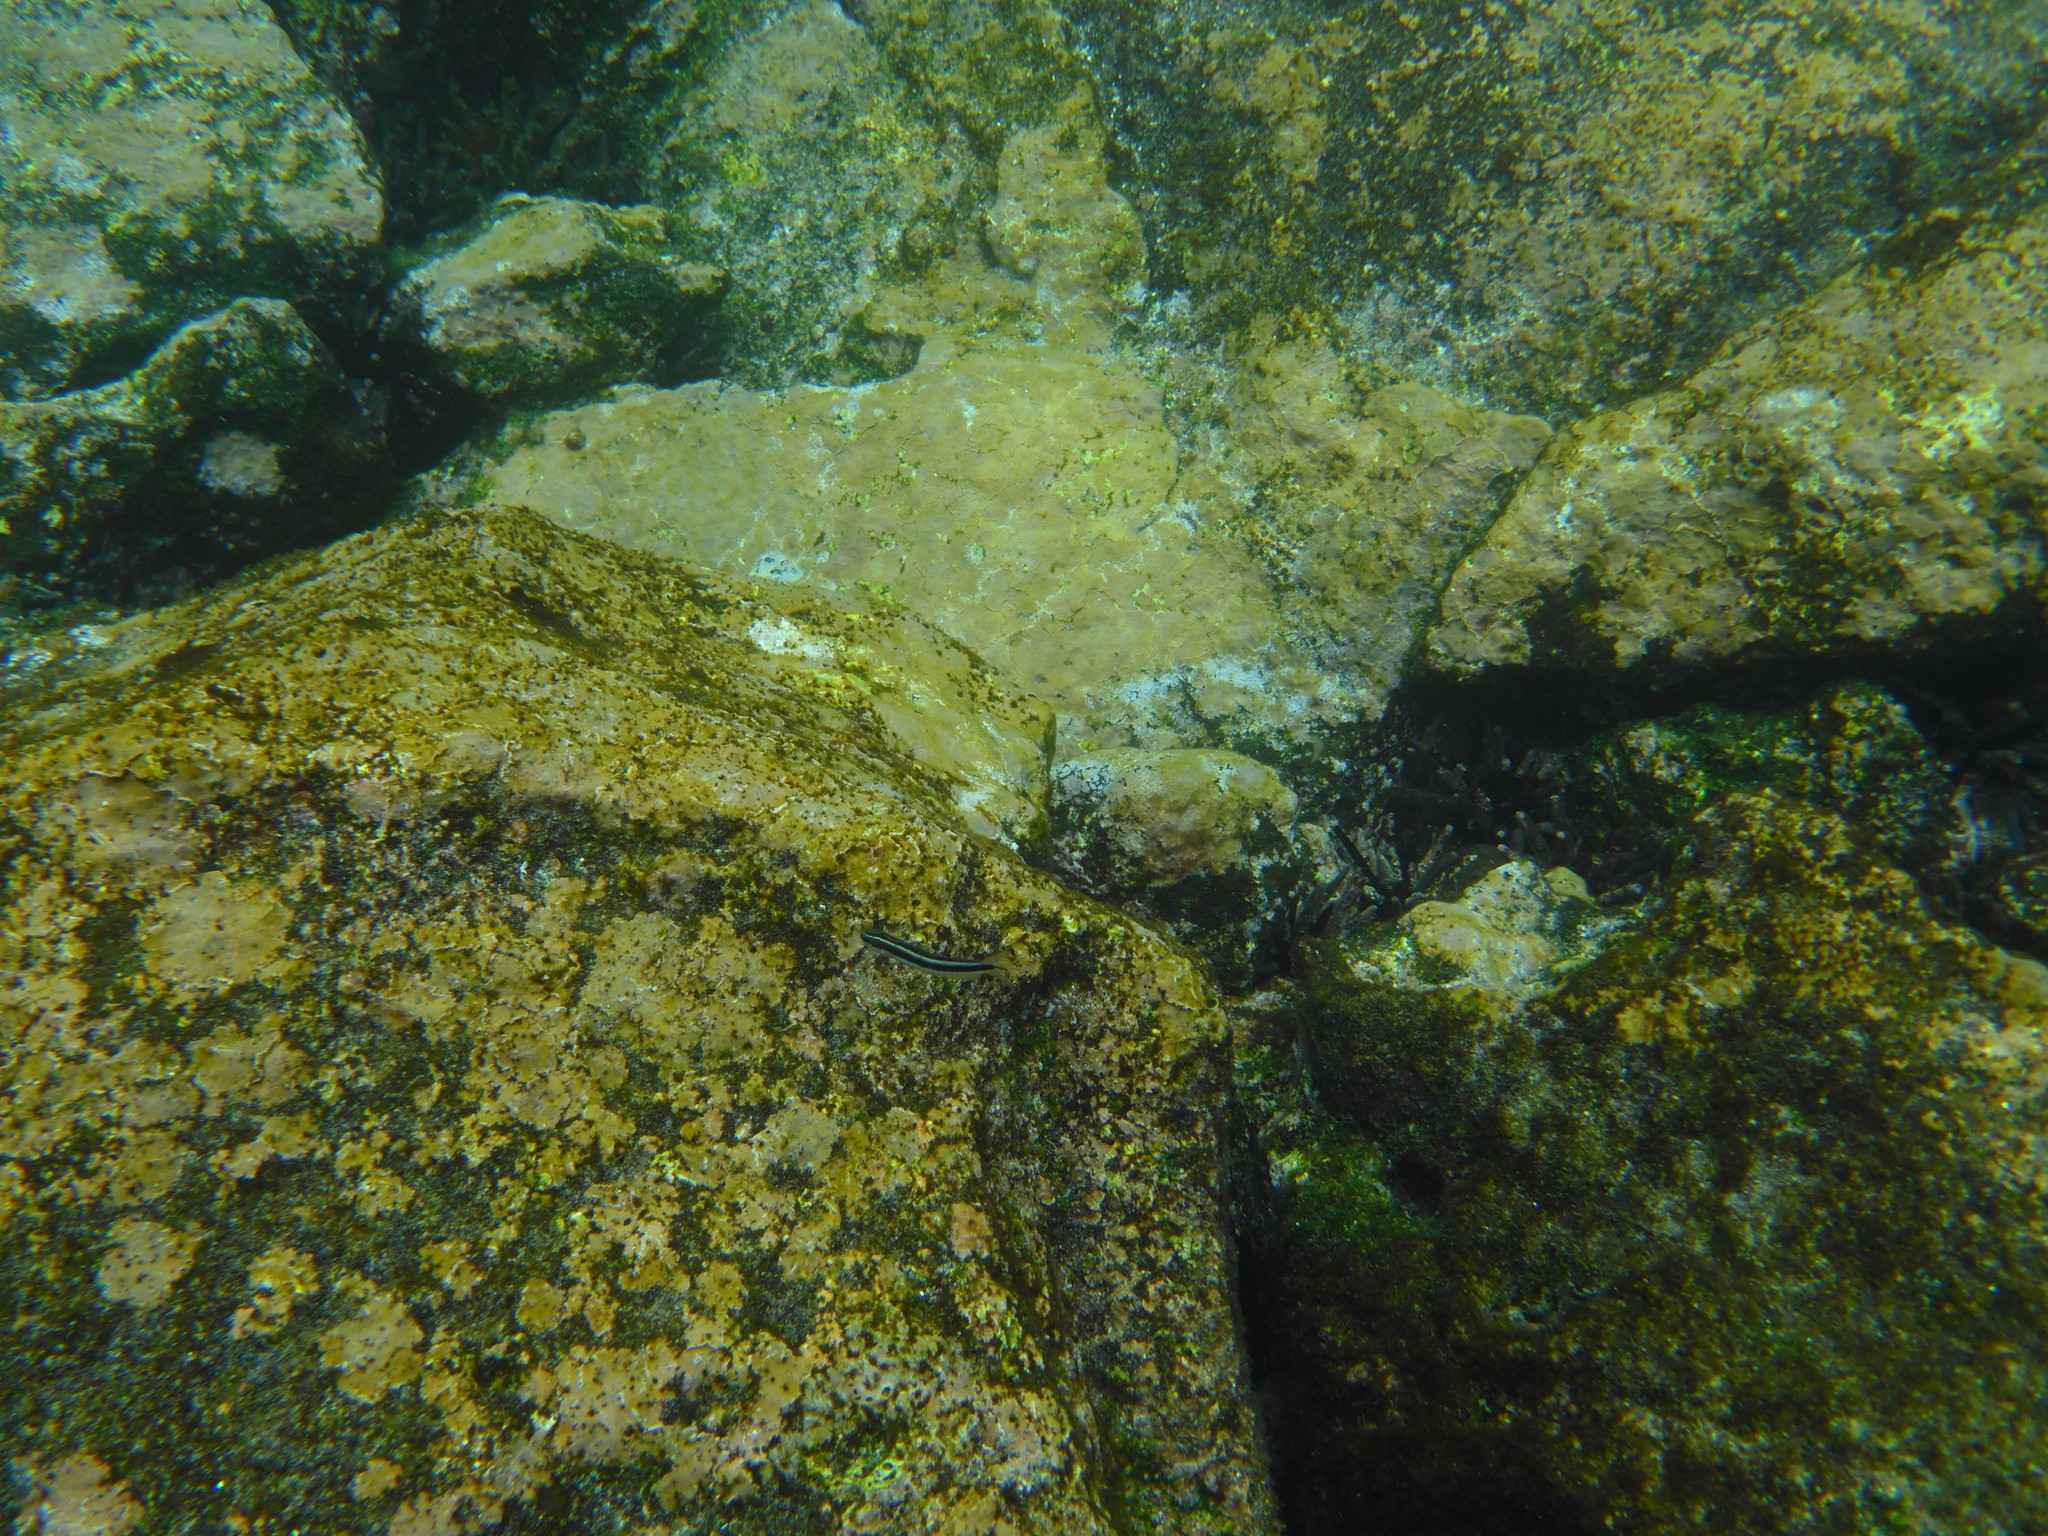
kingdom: Animalia
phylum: Chordata
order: Perciformes
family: Blenniidae
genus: Plagiotremus
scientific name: Plagiotremus azaleus
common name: Sabertooth blenny
